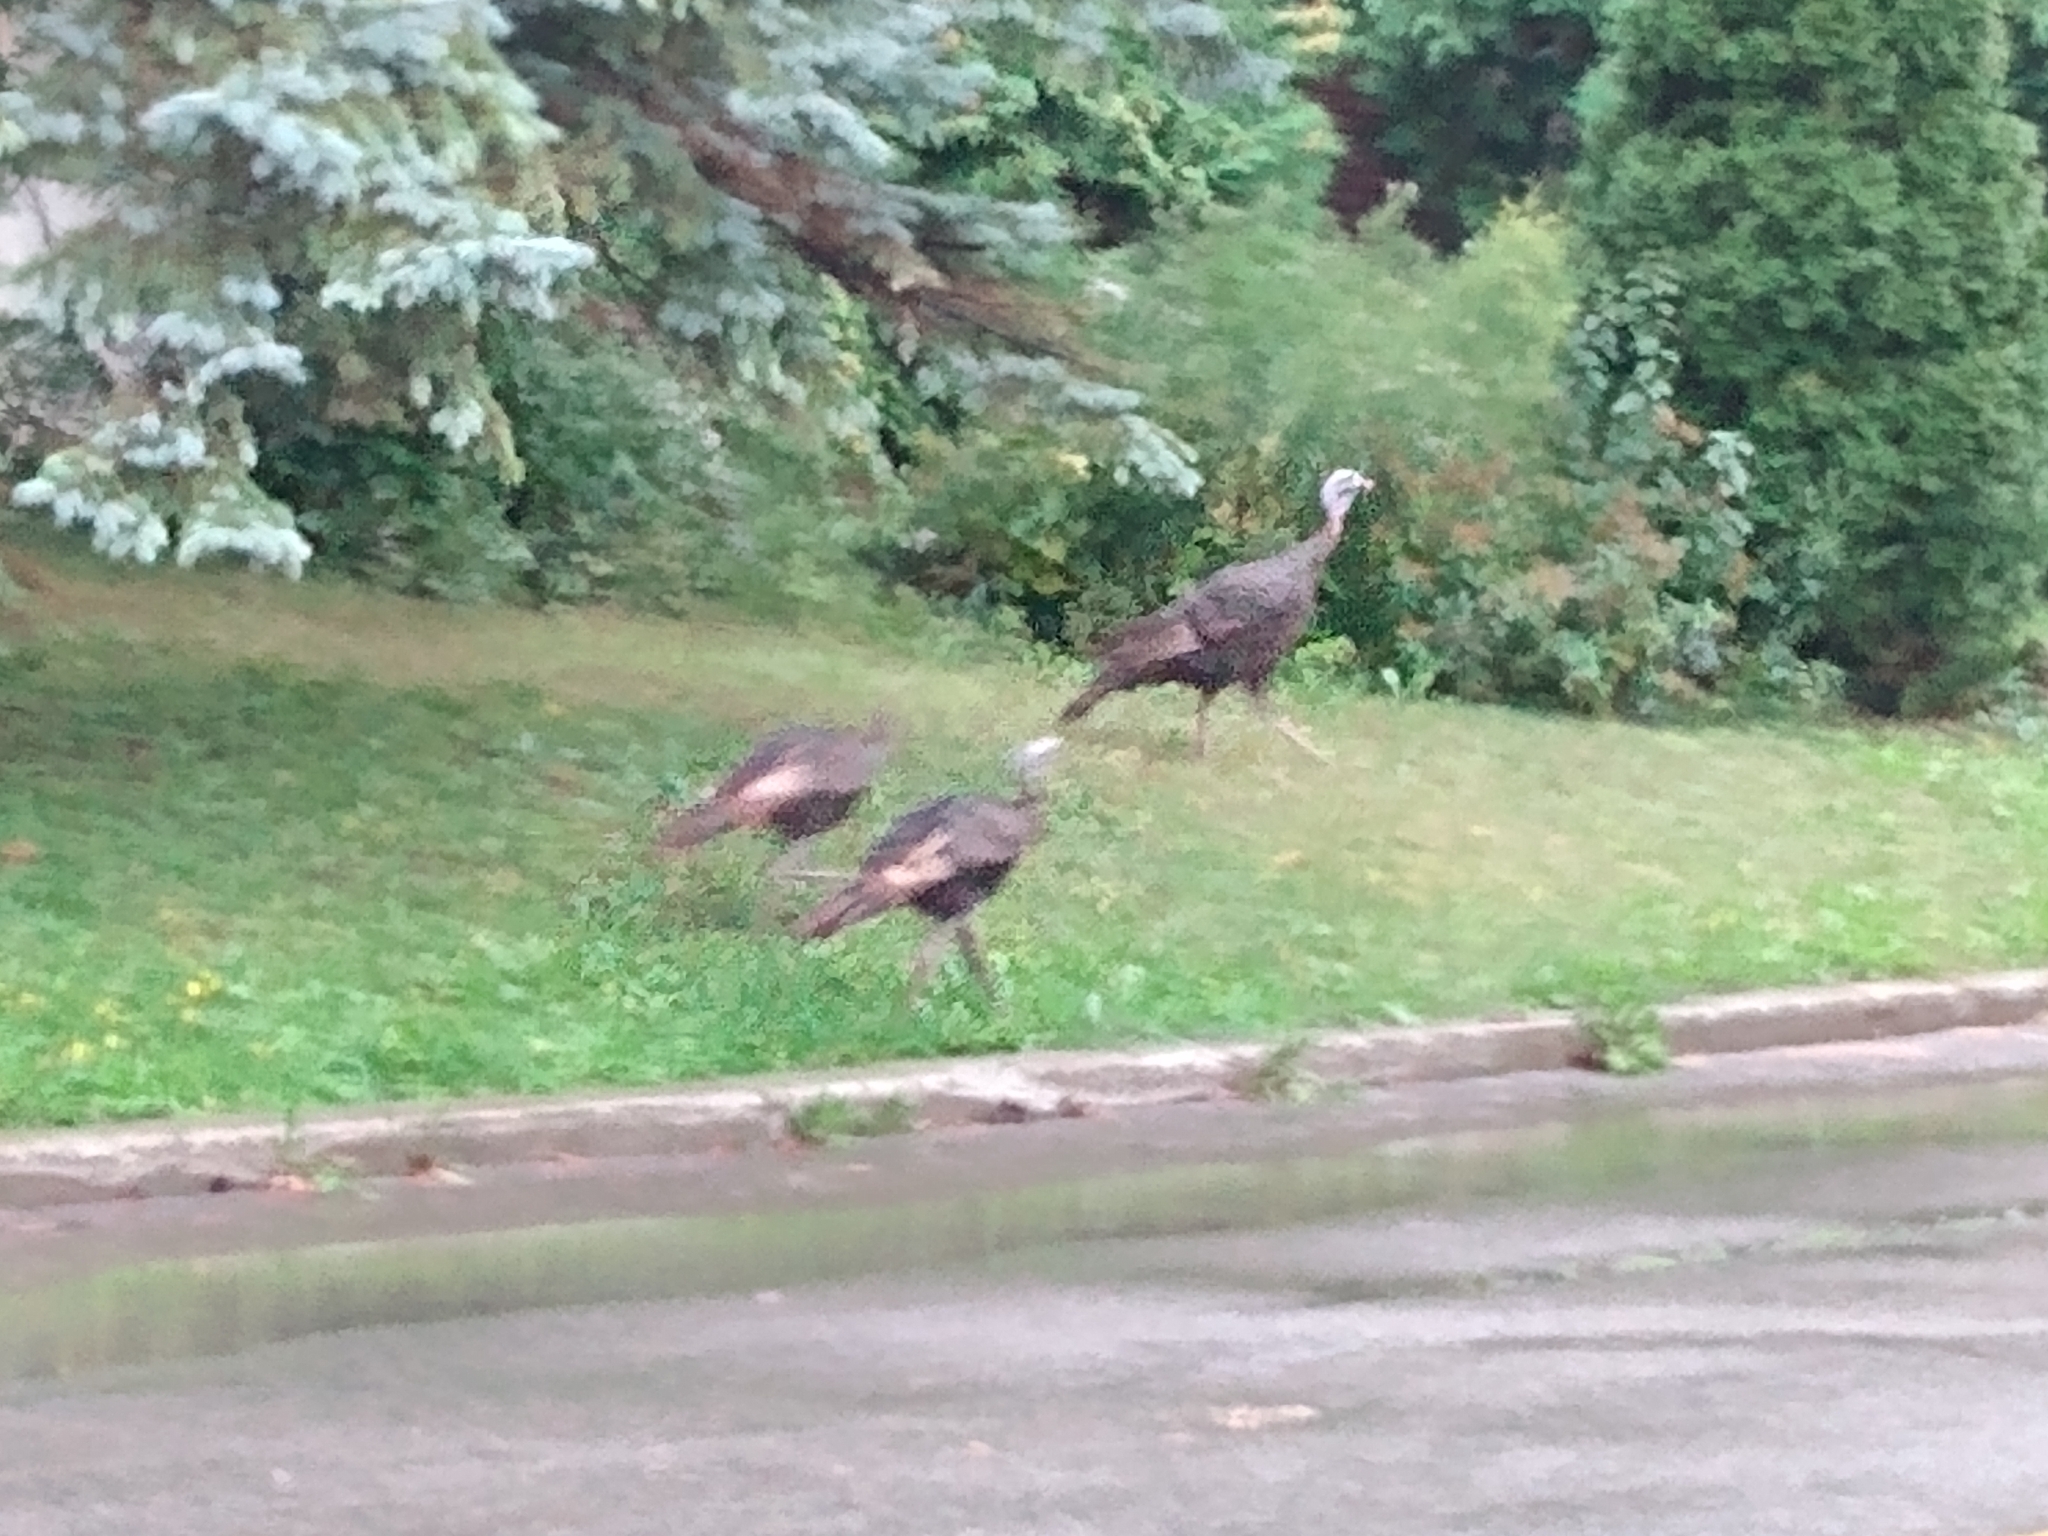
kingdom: Animalia
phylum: Chordata
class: Aves
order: Galliformes
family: Phasianidae
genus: Meleagris
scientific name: Meleagris gallopavo
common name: Wild turkey
